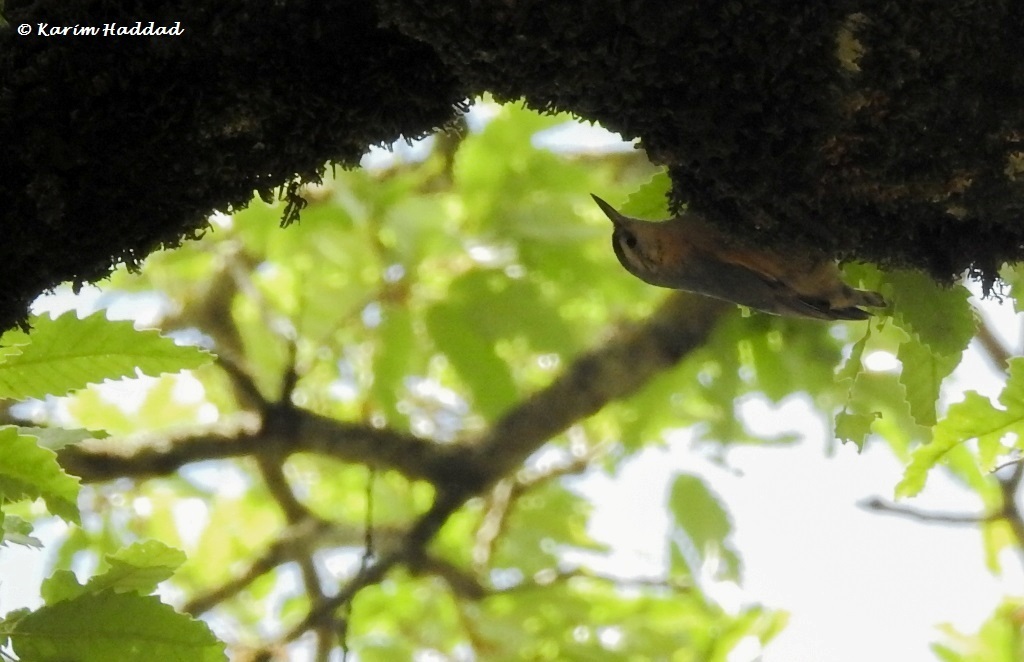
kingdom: Animalia
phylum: Chordata
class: Aves
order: Passeriformes
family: Sittidae
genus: Sitta
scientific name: Sitta ledanti
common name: Algerian nuthatch
